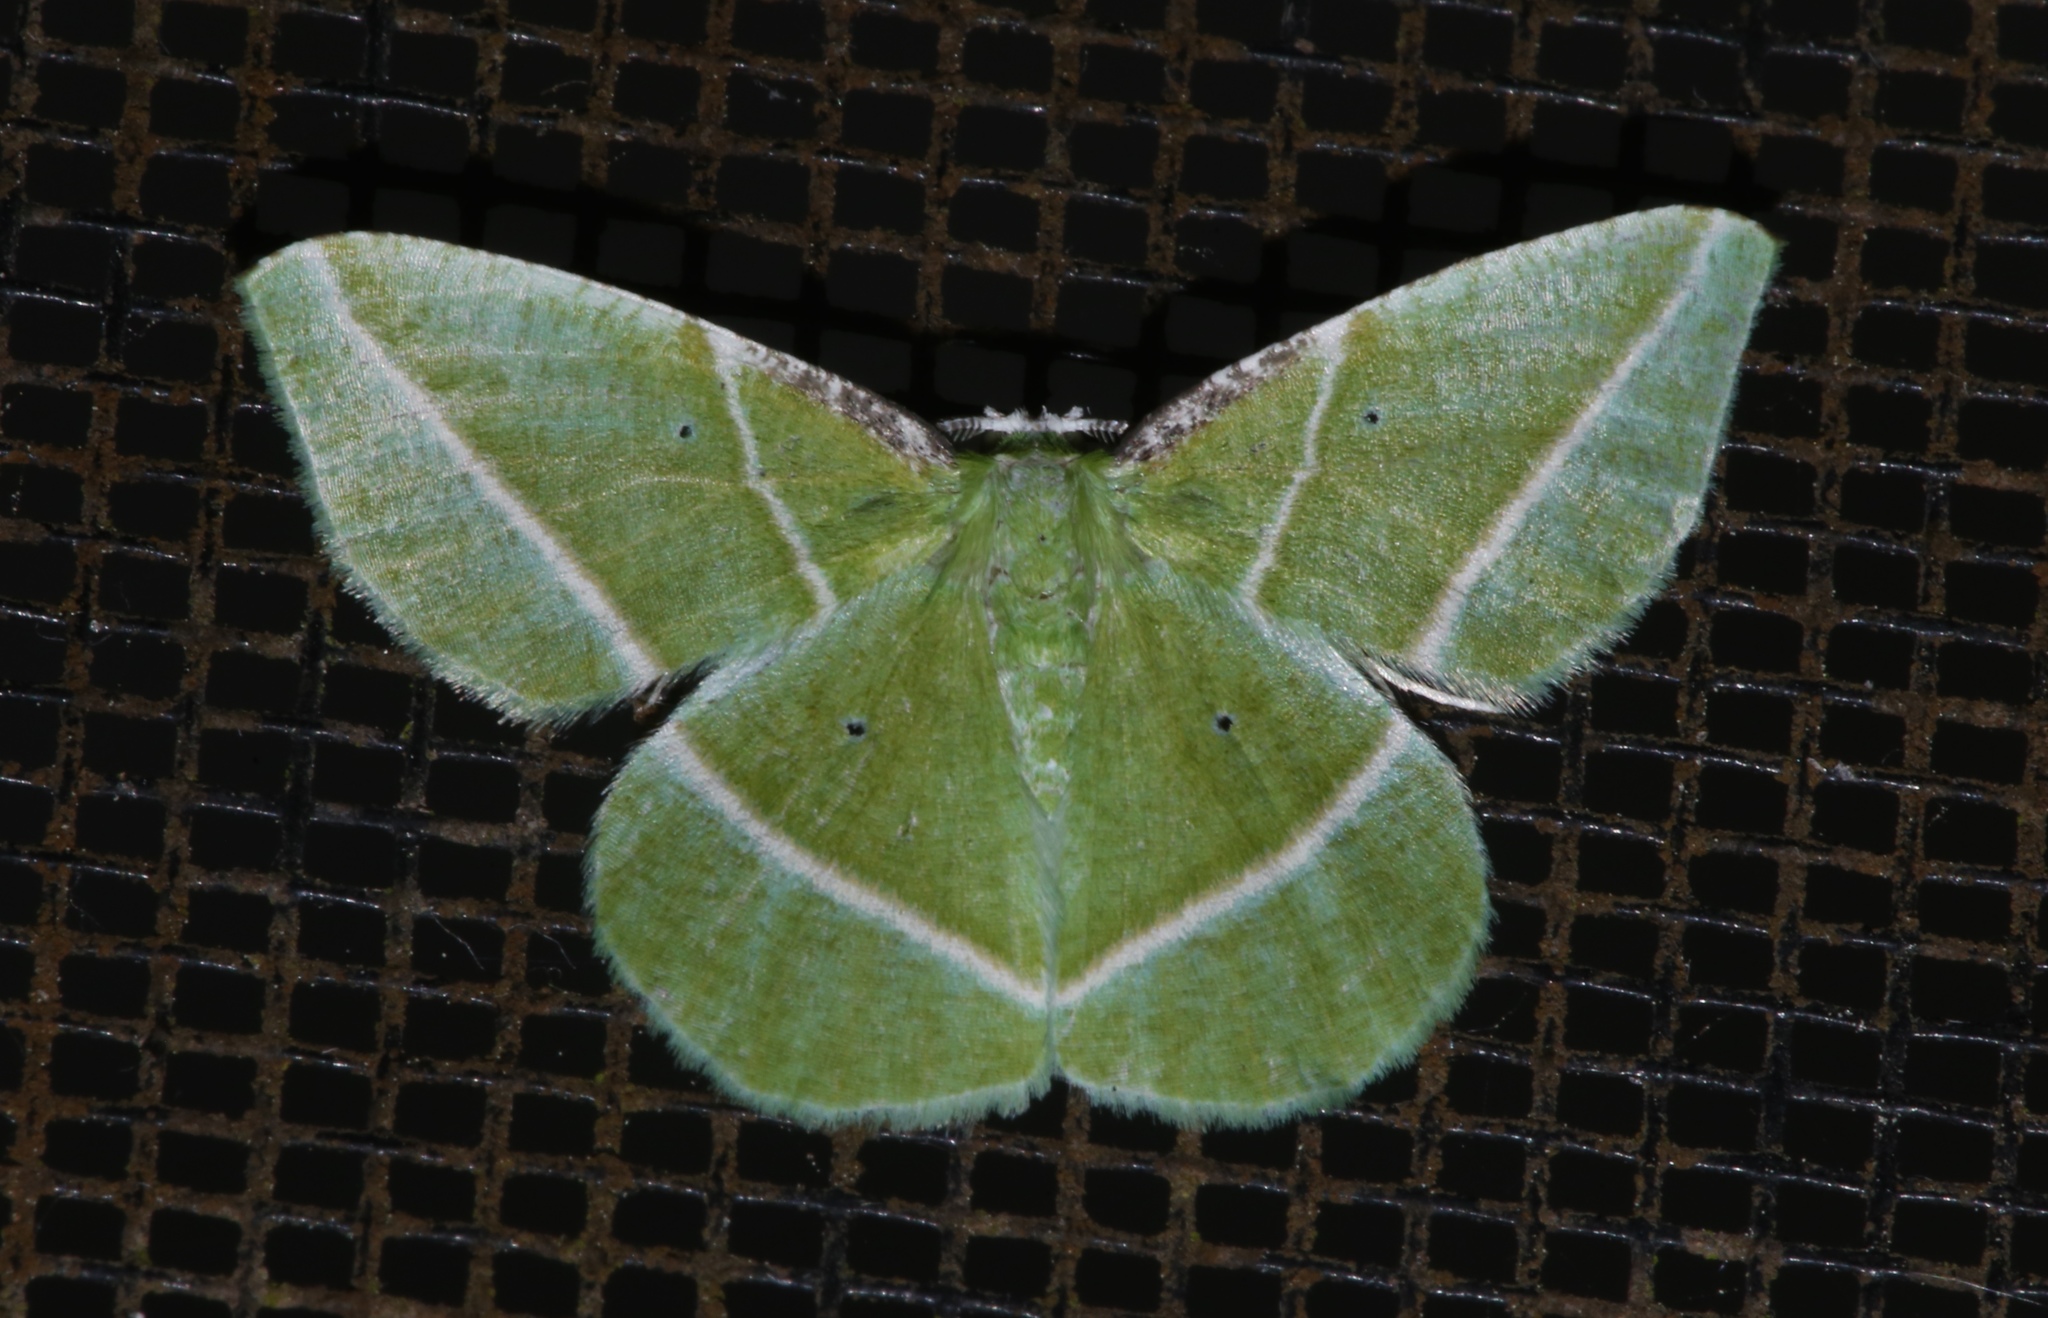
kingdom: Animalia
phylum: Arthropoda
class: Insecta
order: Lepidoptera
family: Geometridae
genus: Dichorda
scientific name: Dichorda iridaria
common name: Showy emerald
